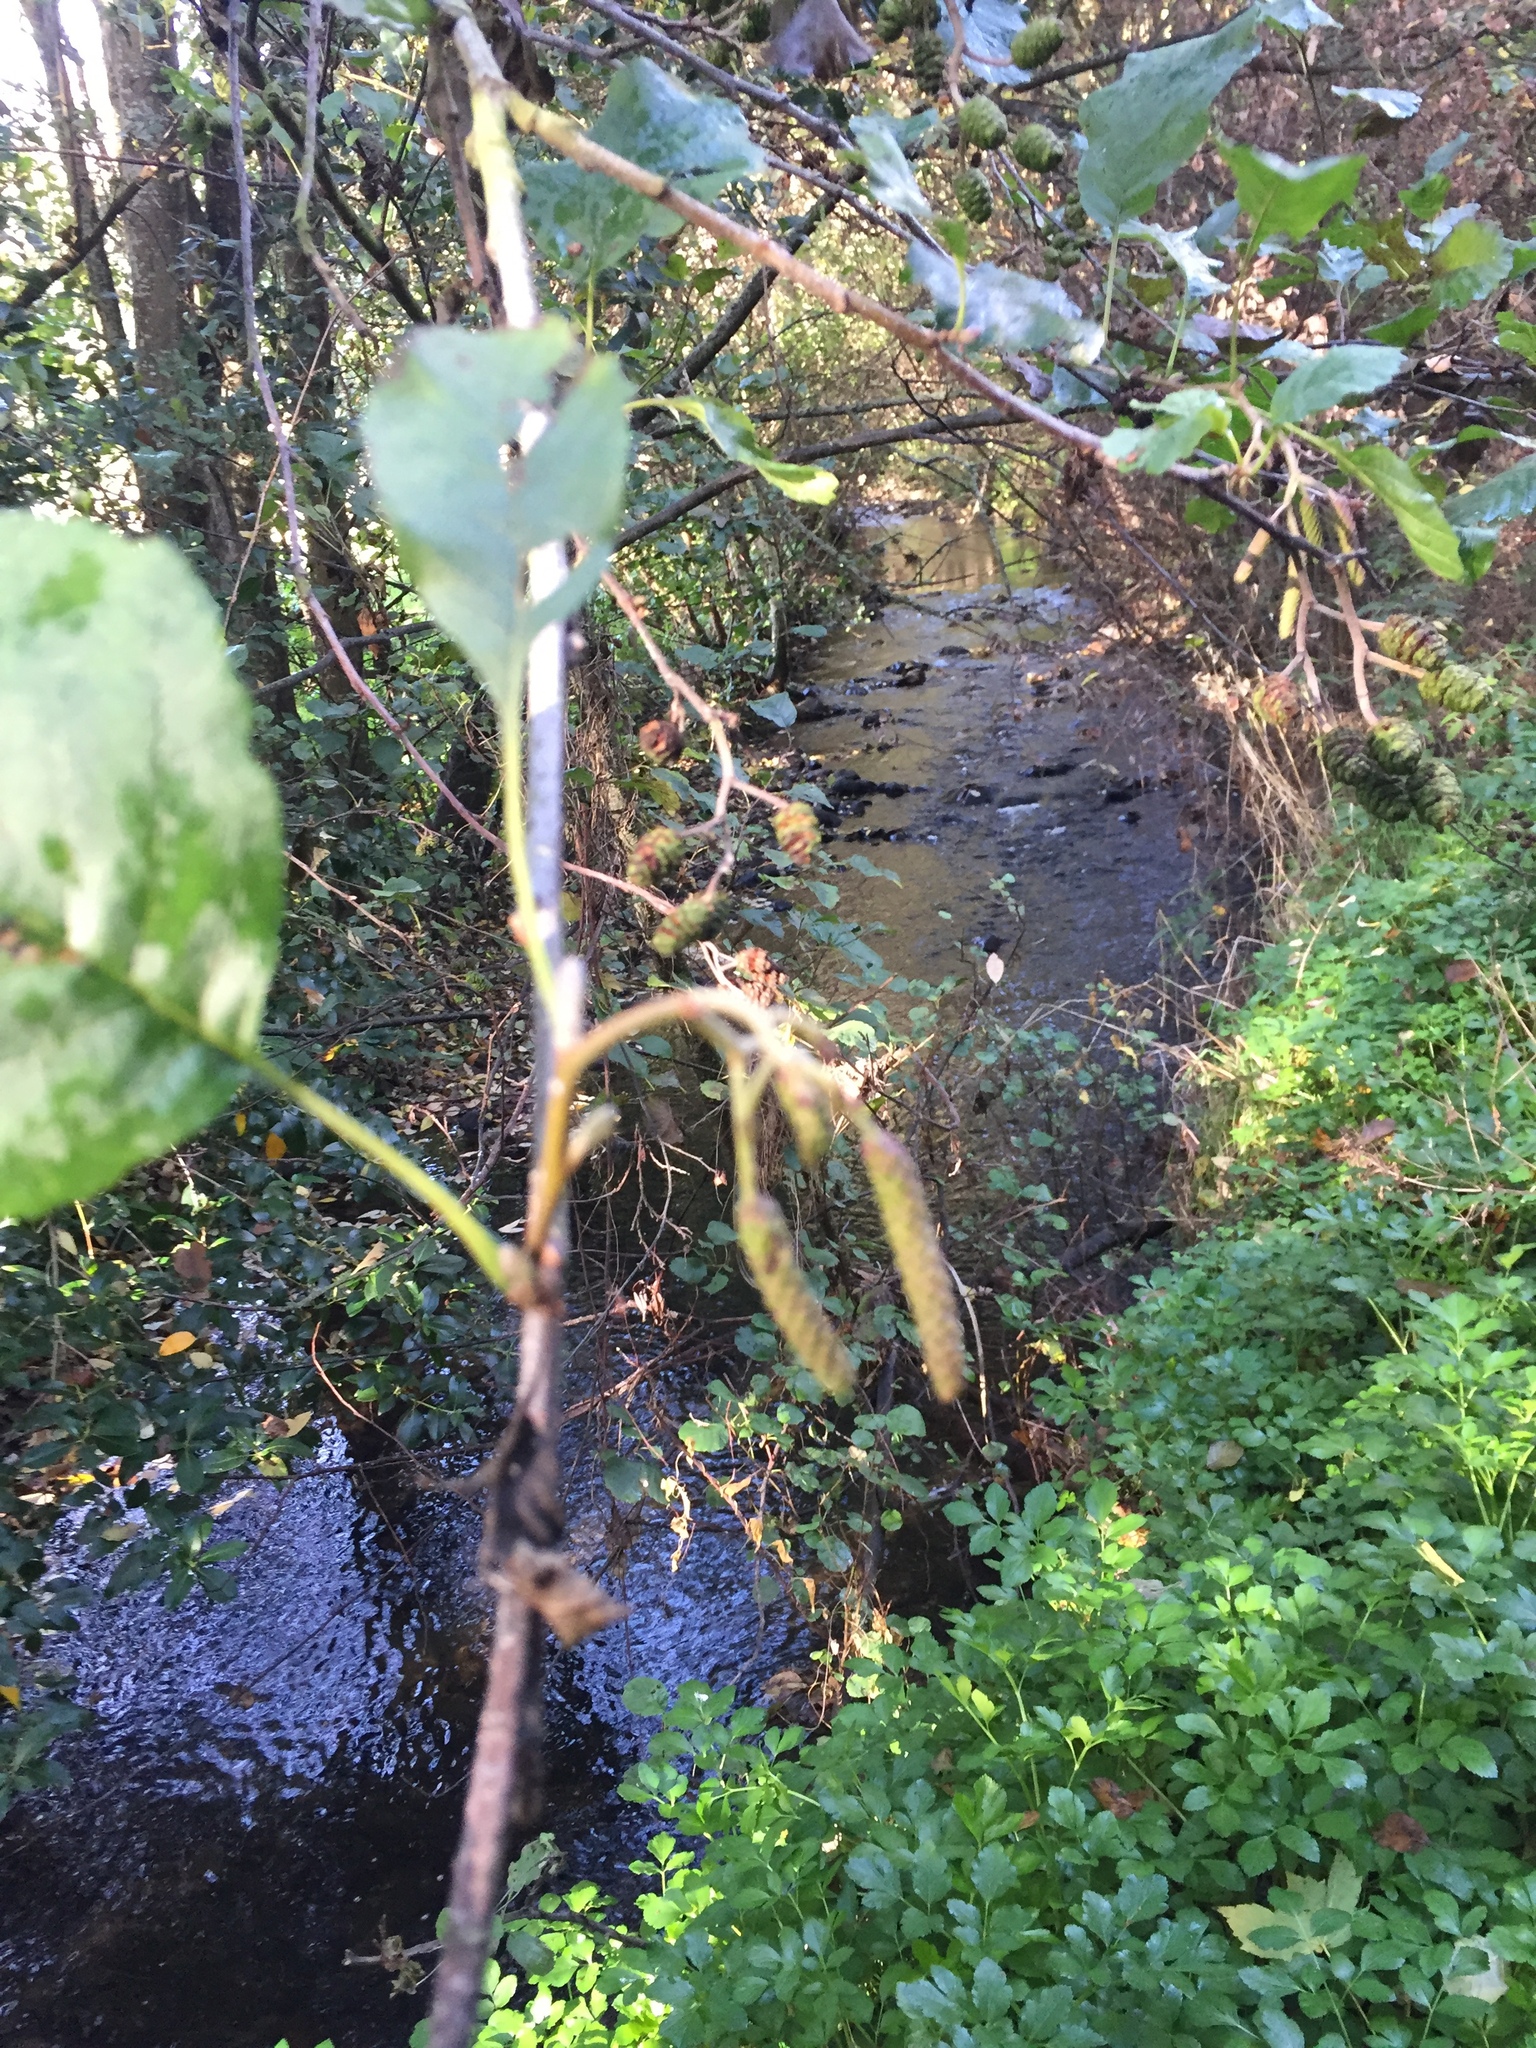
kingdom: Plantae
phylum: Tracheophyta
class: Magnoliopsida
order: Fagales
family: Betulaceae
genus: Alnus
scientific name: Alnus glutinosa
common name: Black alder
